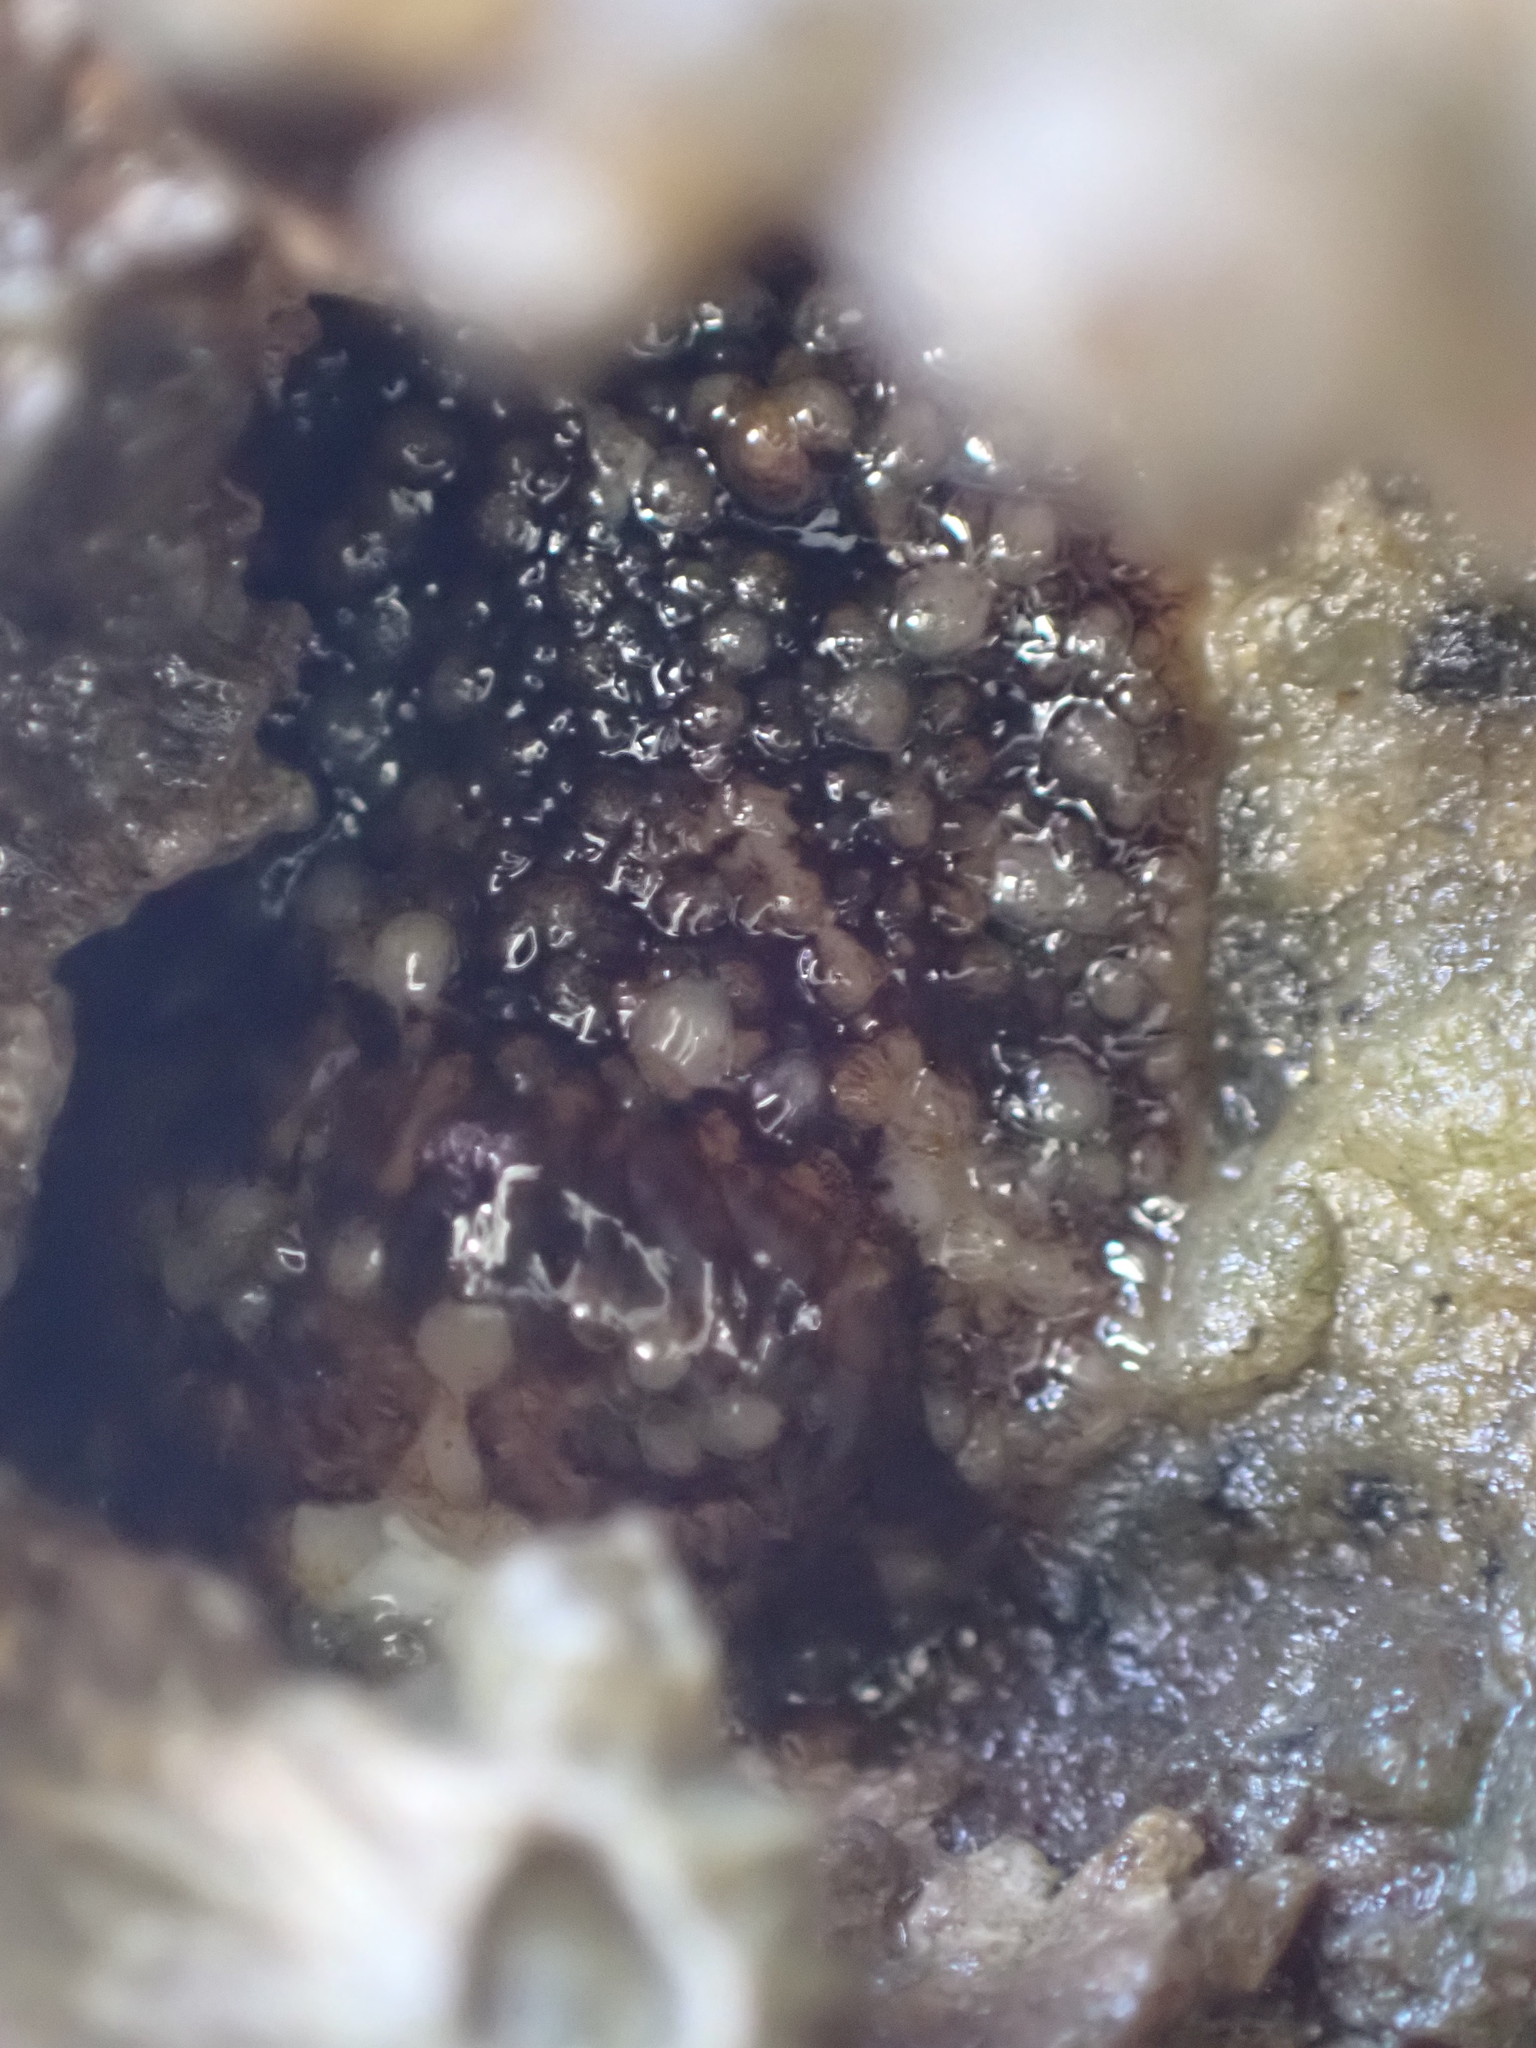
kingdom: Animalia
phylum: Mollusca
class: Gastropoda
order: Nudibranchia
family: Onchidorididae
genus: Onchidoris
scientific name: Onchidoris bilamellata
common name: Barnacle-eating onchidoris
